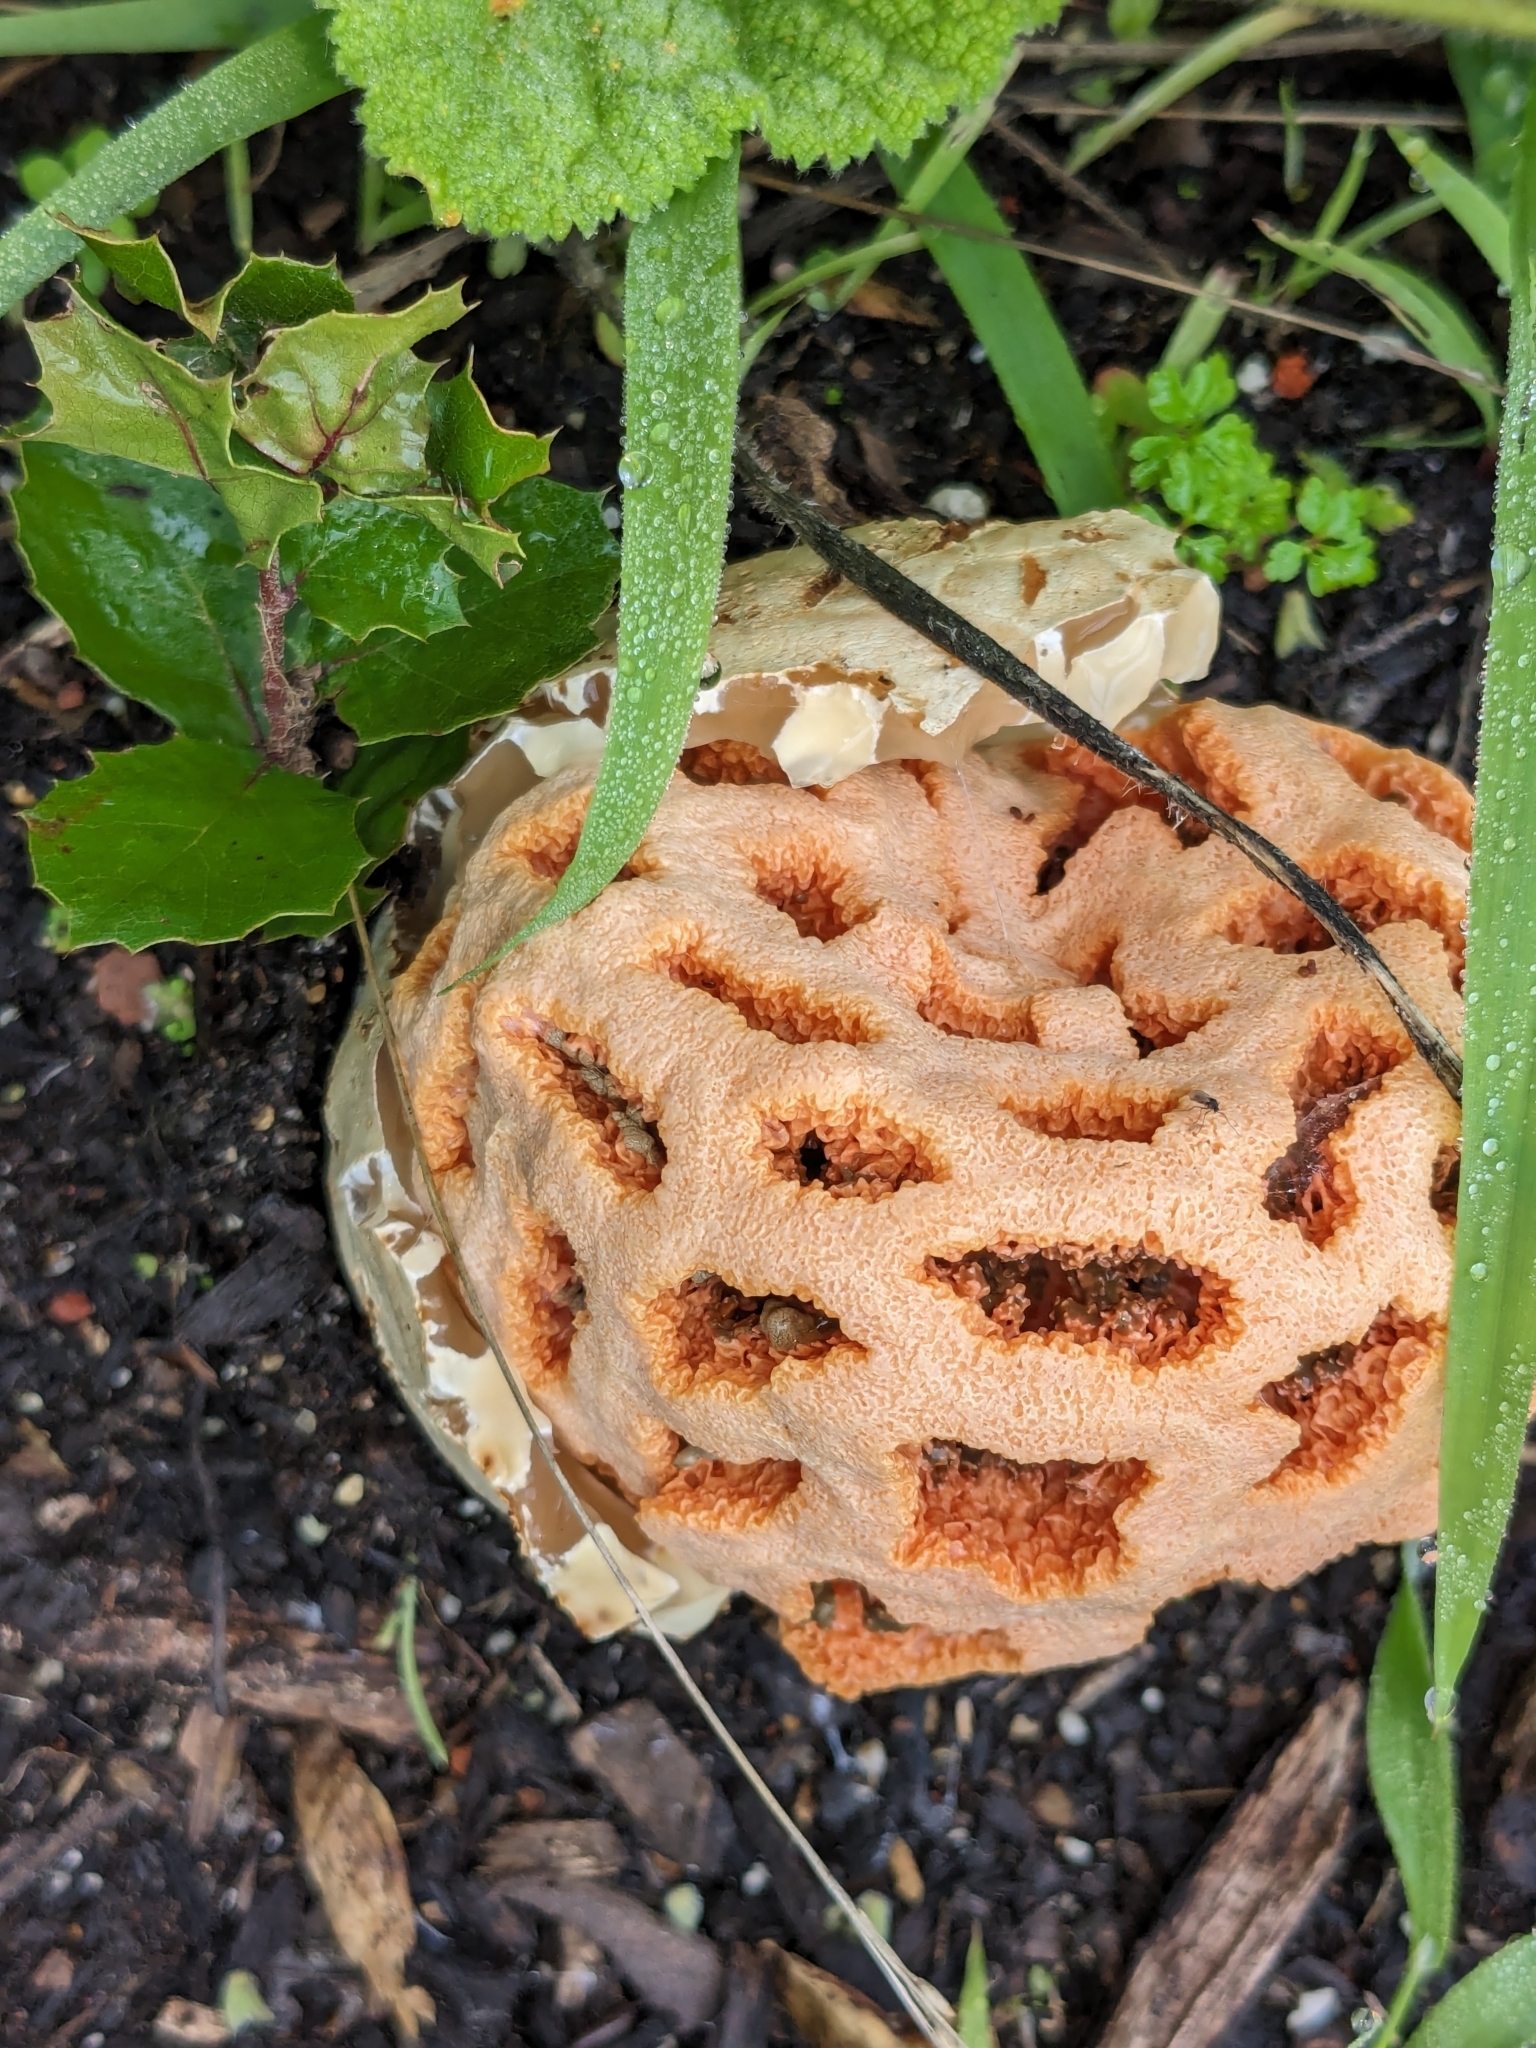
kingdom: Fungi
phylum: Basidiomycota
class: Agaricomycetes
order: Phallales
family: Phallaceae
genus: Clathrus
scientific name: Clathrus ruber
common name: Red cage
